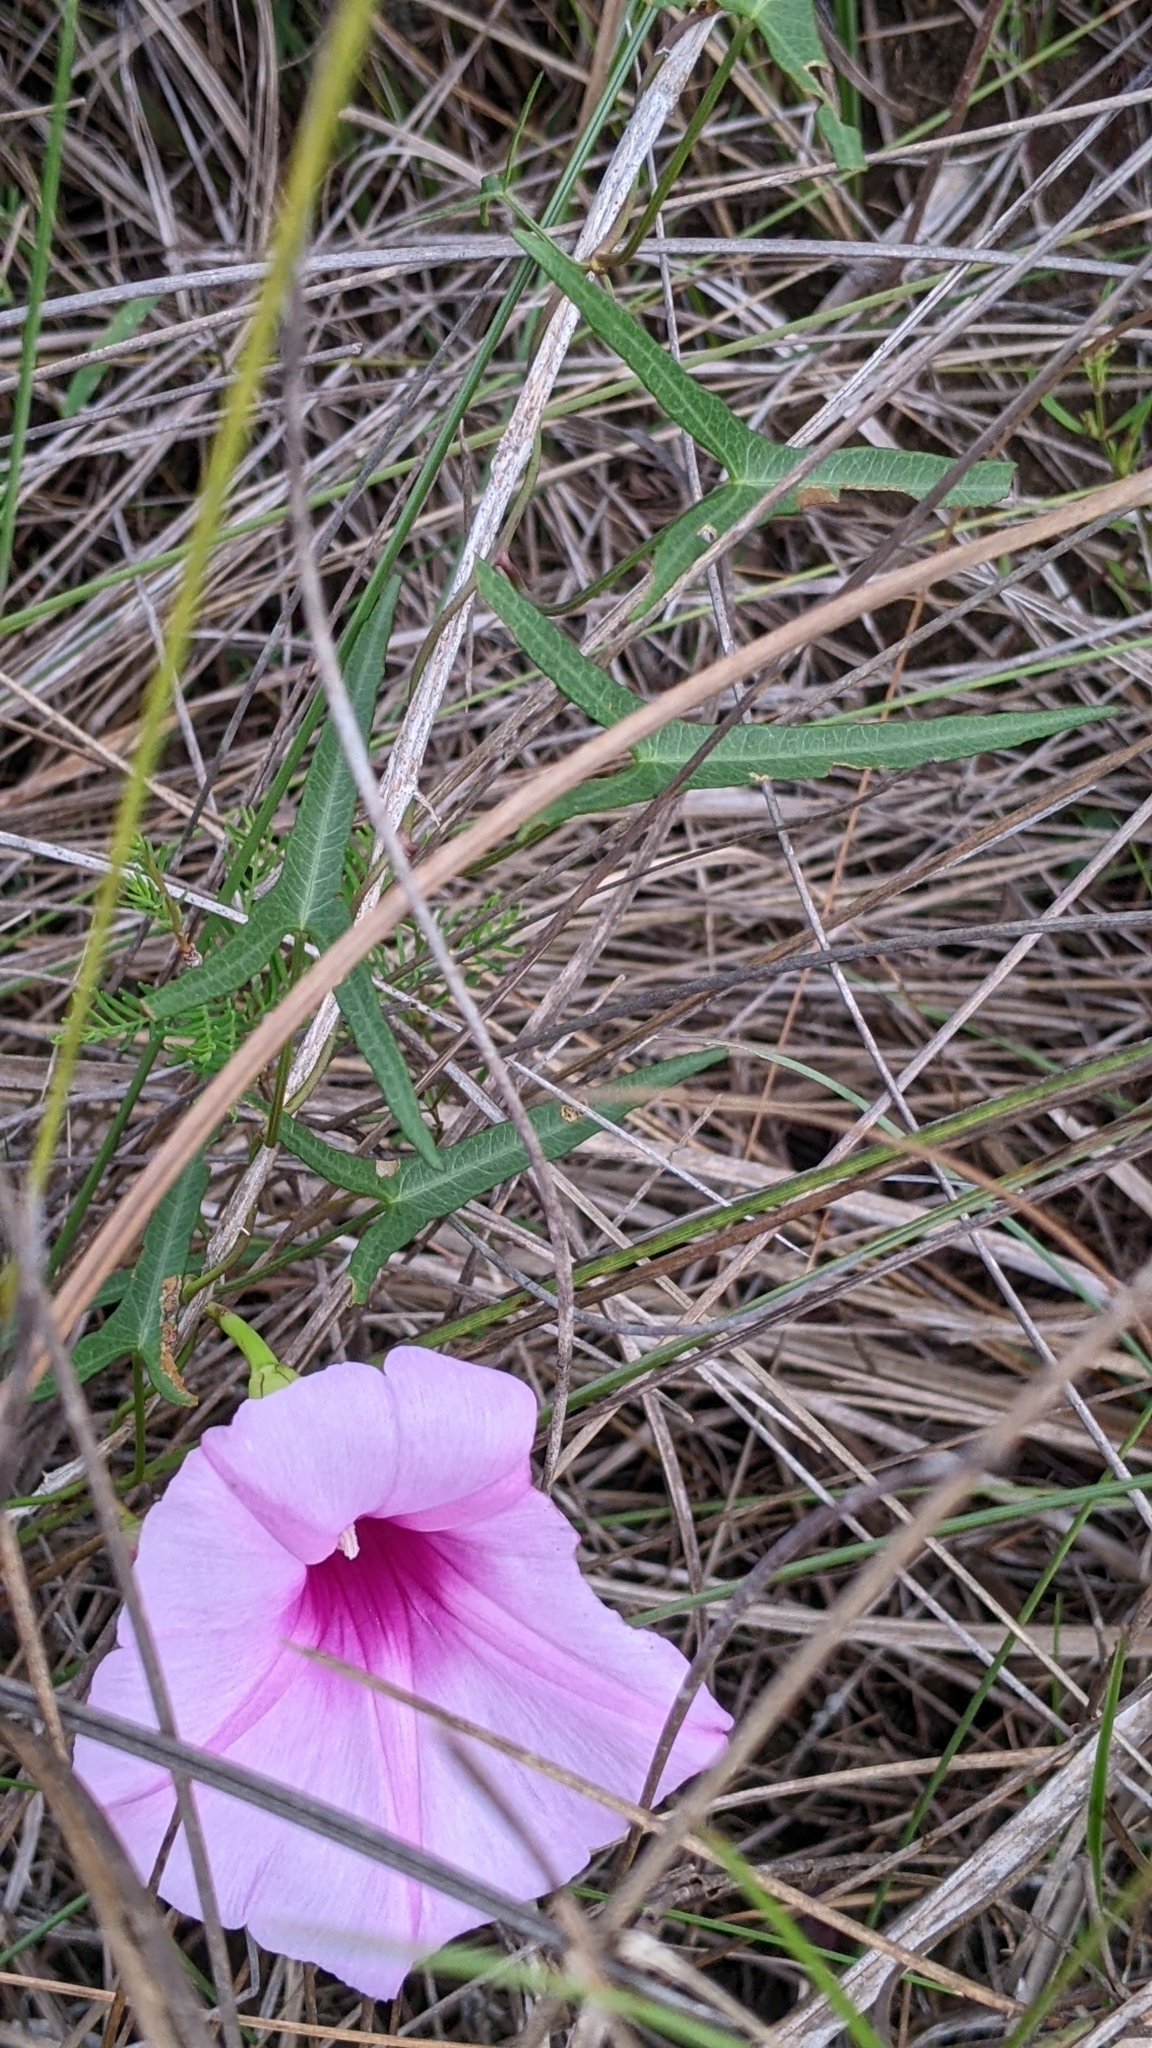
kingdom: Plantae
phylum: Tracheophyta
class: Magnoliopsida
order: Solanales
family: Convolvulaceae
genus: Ipomoea
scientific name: Ipomoea sagittata
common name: Saltmarsh morning glory
